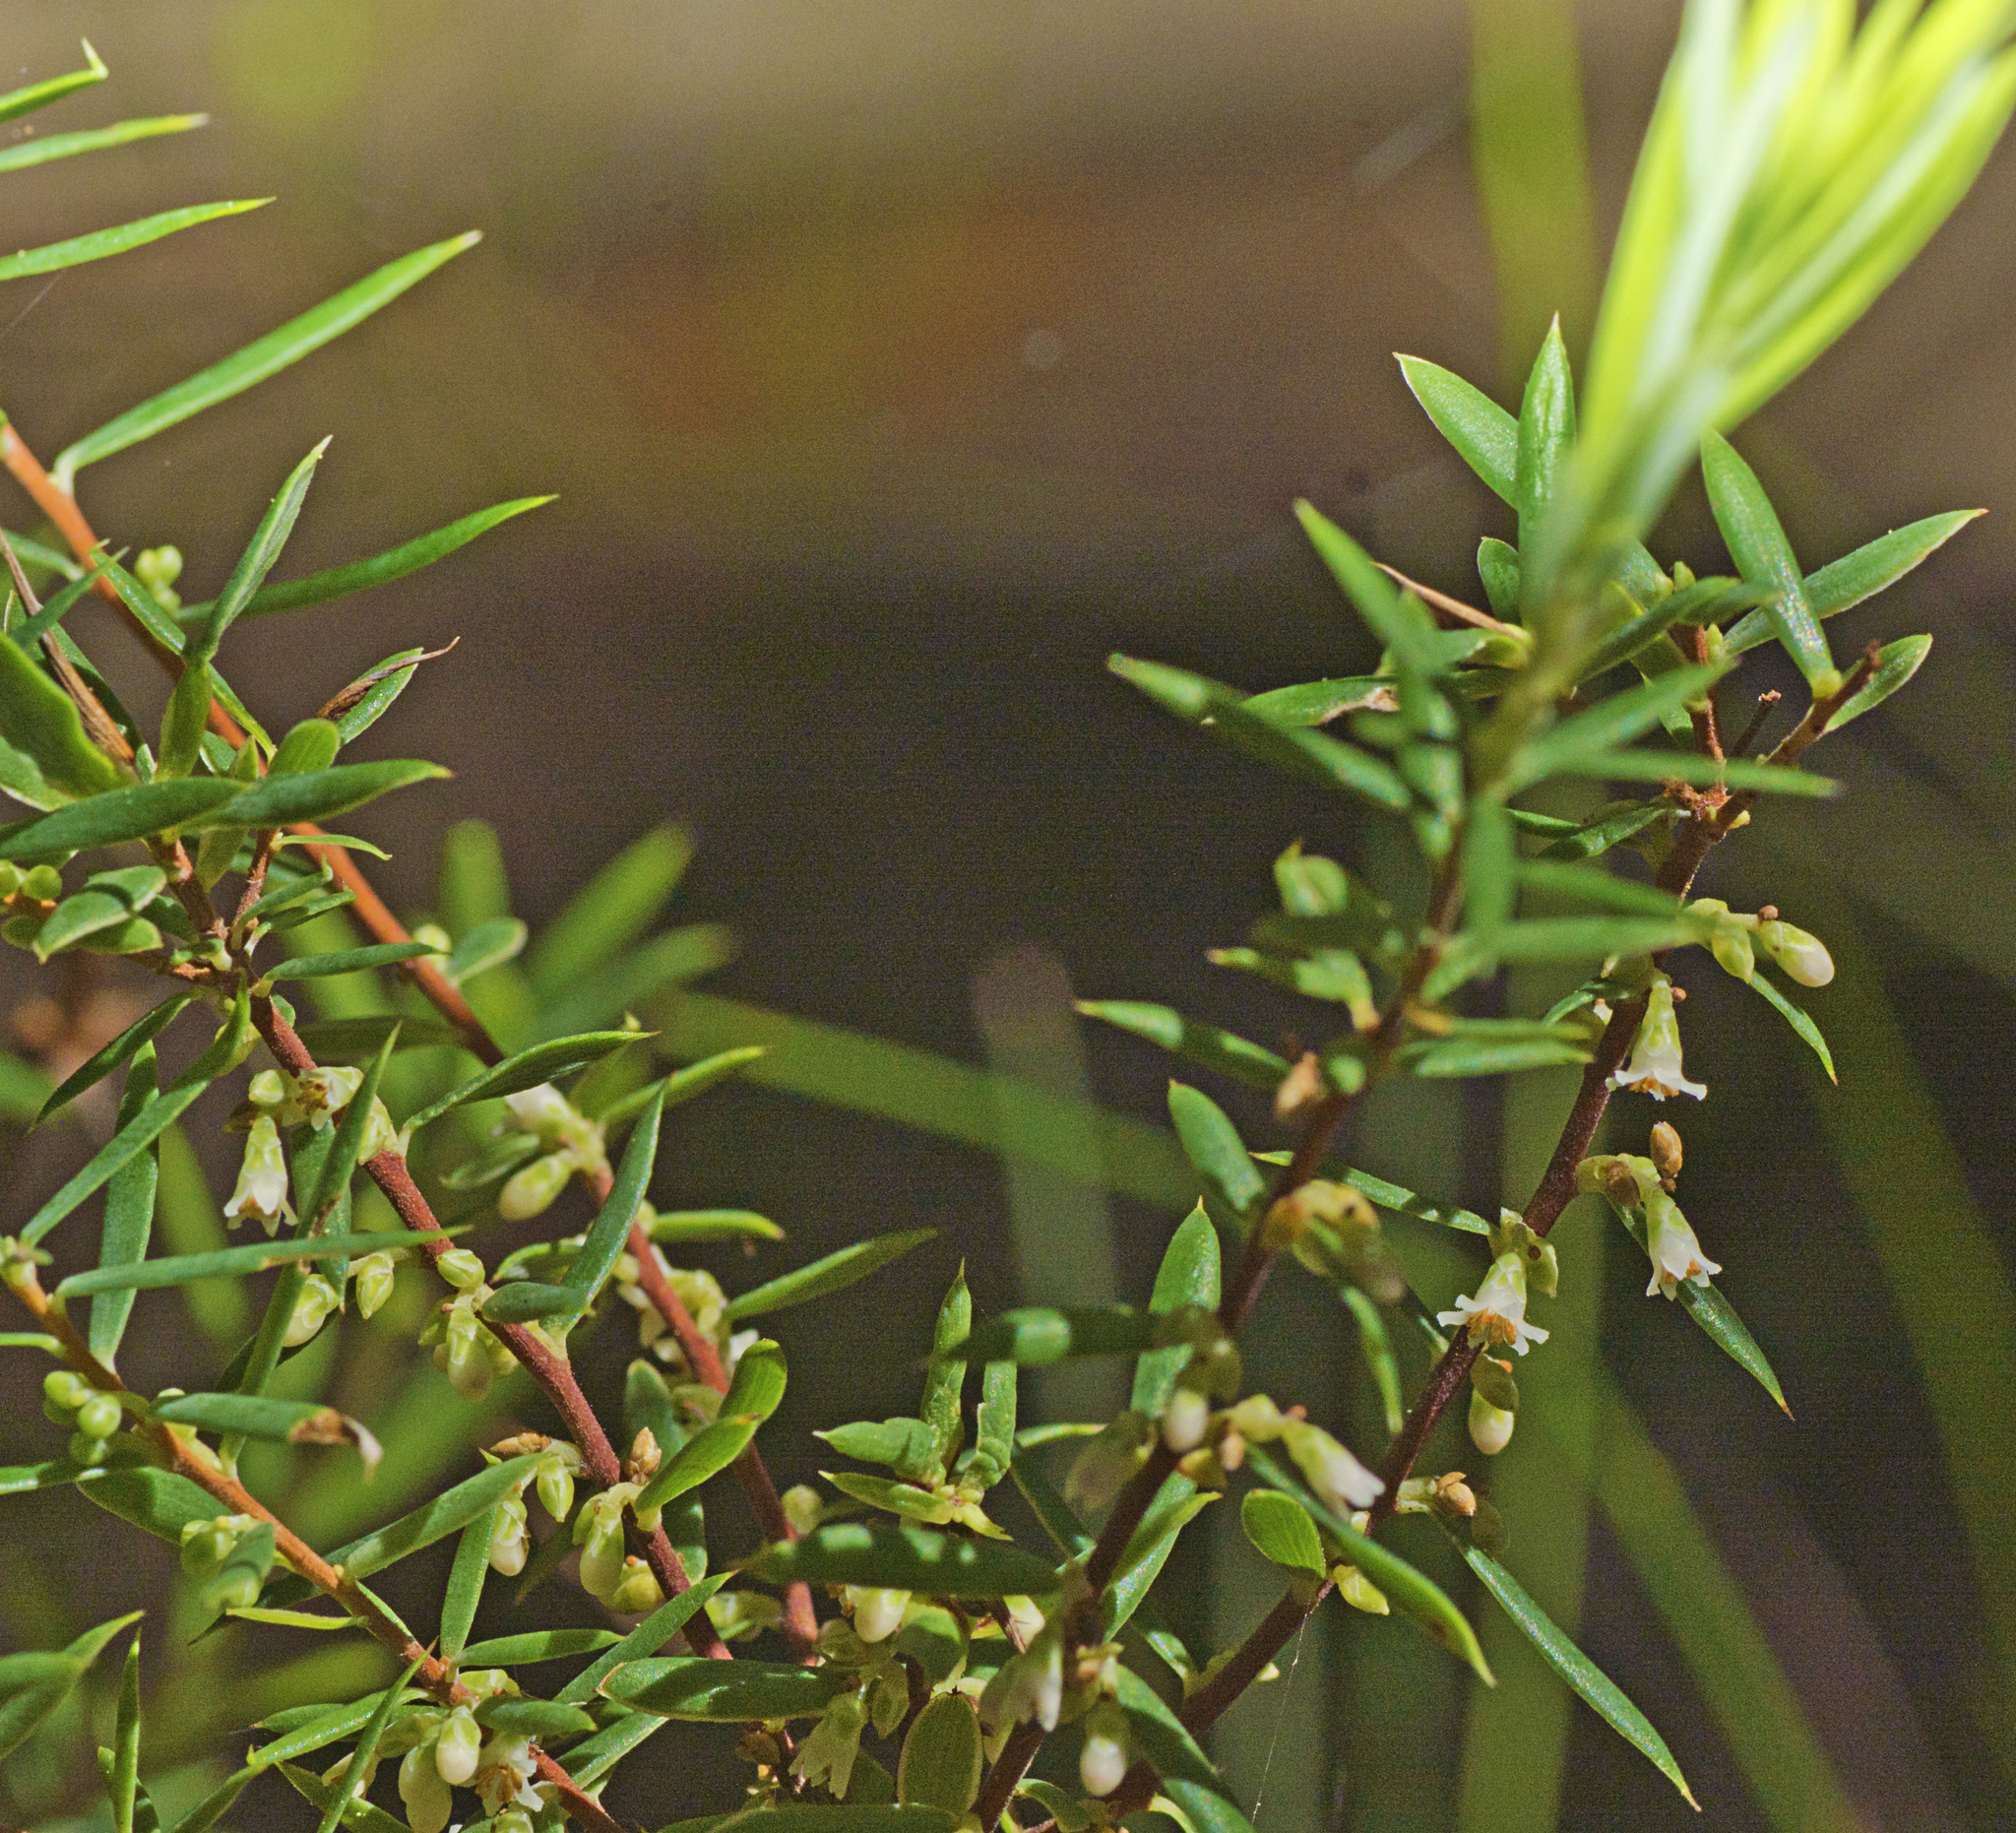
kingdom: Plantae
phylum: Tracheophyta
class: Magnoliopsida
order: Ericales
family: Ericaceae
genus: Monotoca
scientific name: Monotoca scoparia
